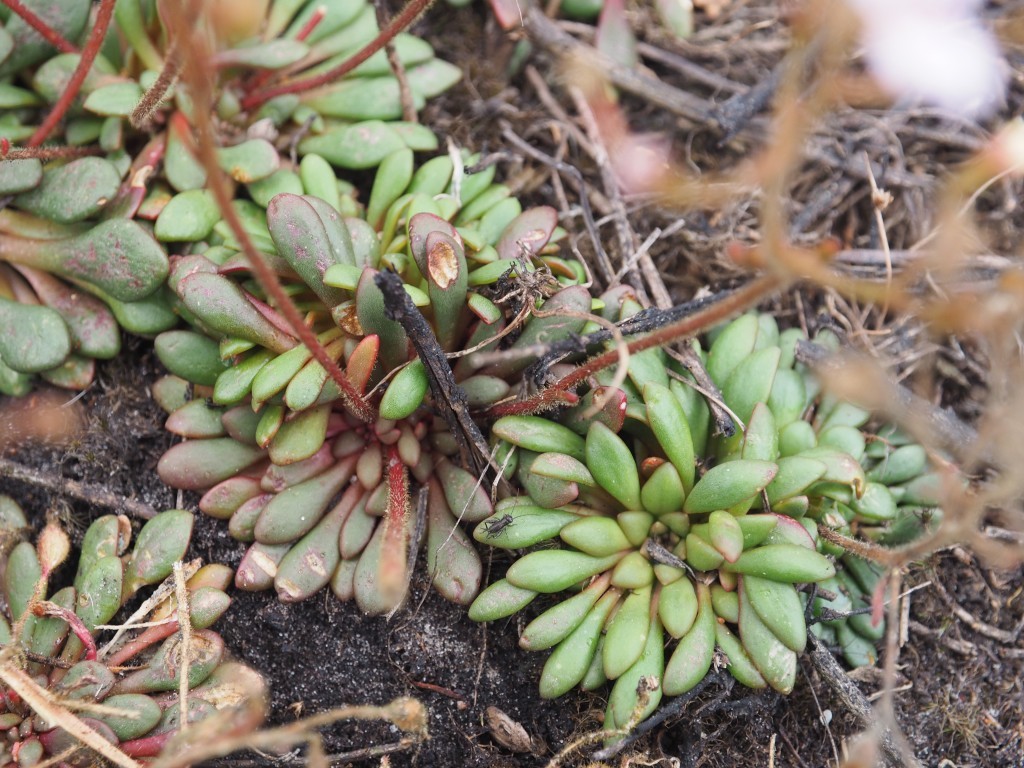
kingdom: Plantae
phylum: Tracheophyta
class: Magnoliopsida
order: Asterales
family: Stylidiaceae
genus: Stylidium
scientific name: Stylidium assimile
